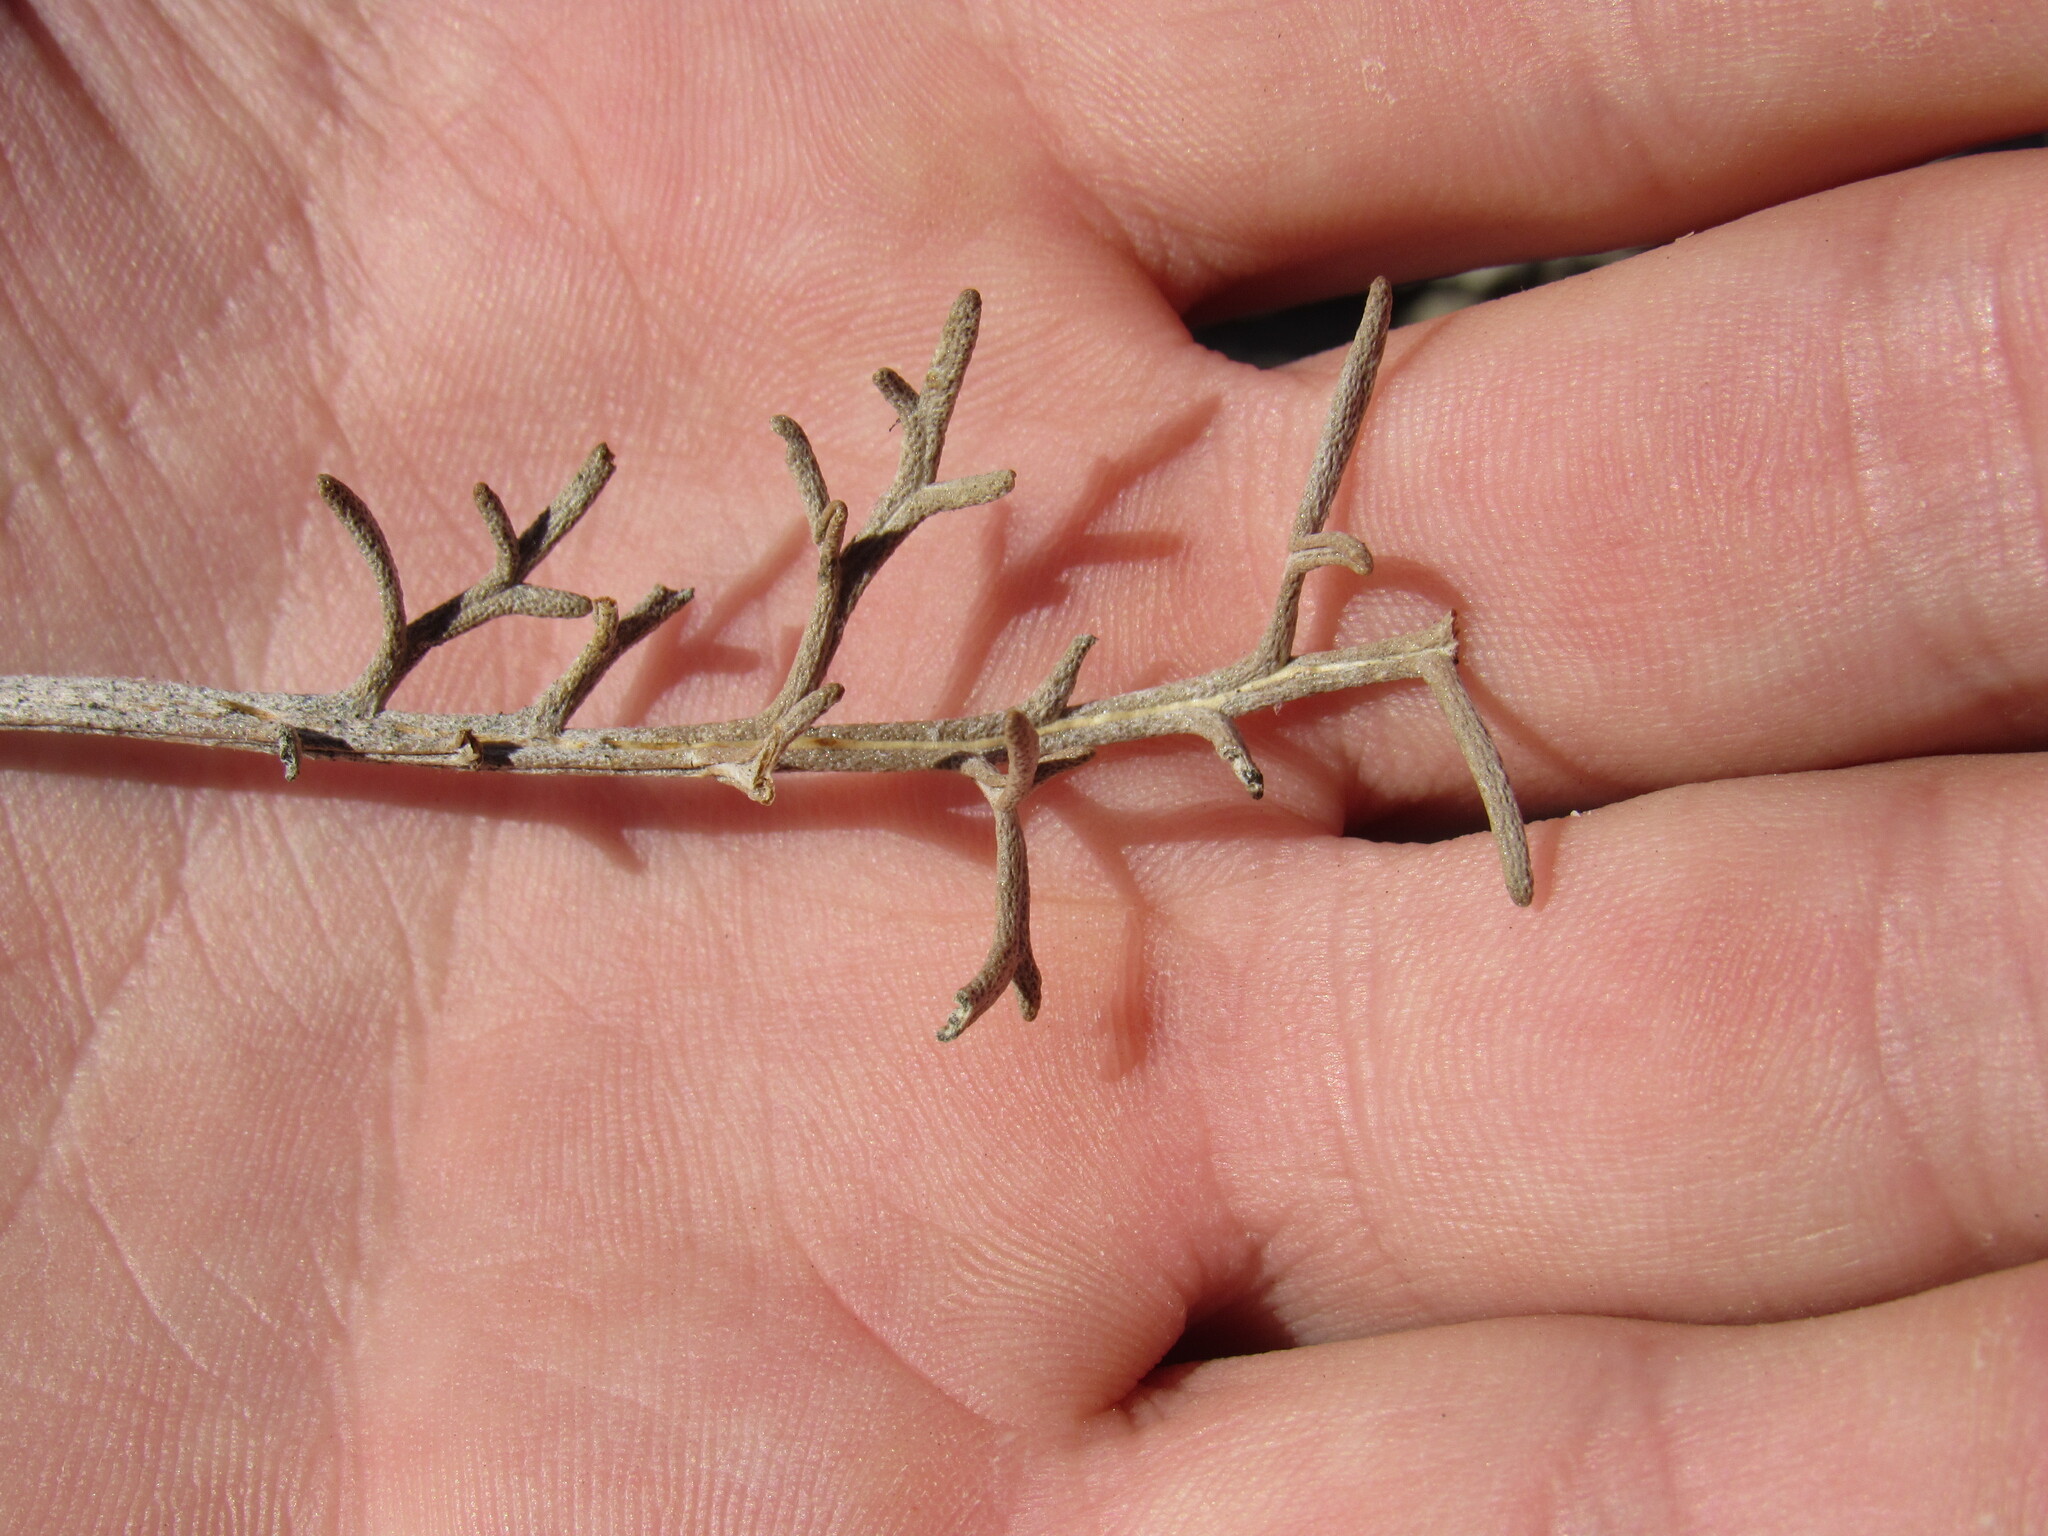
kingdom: Plantae
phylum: Tracheophyta
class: Magnoliopsida
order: Asterales
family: Asteraceae
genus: Hymenopappus
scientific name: Hymenopappus filifolius
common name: Columbia cutleaf
